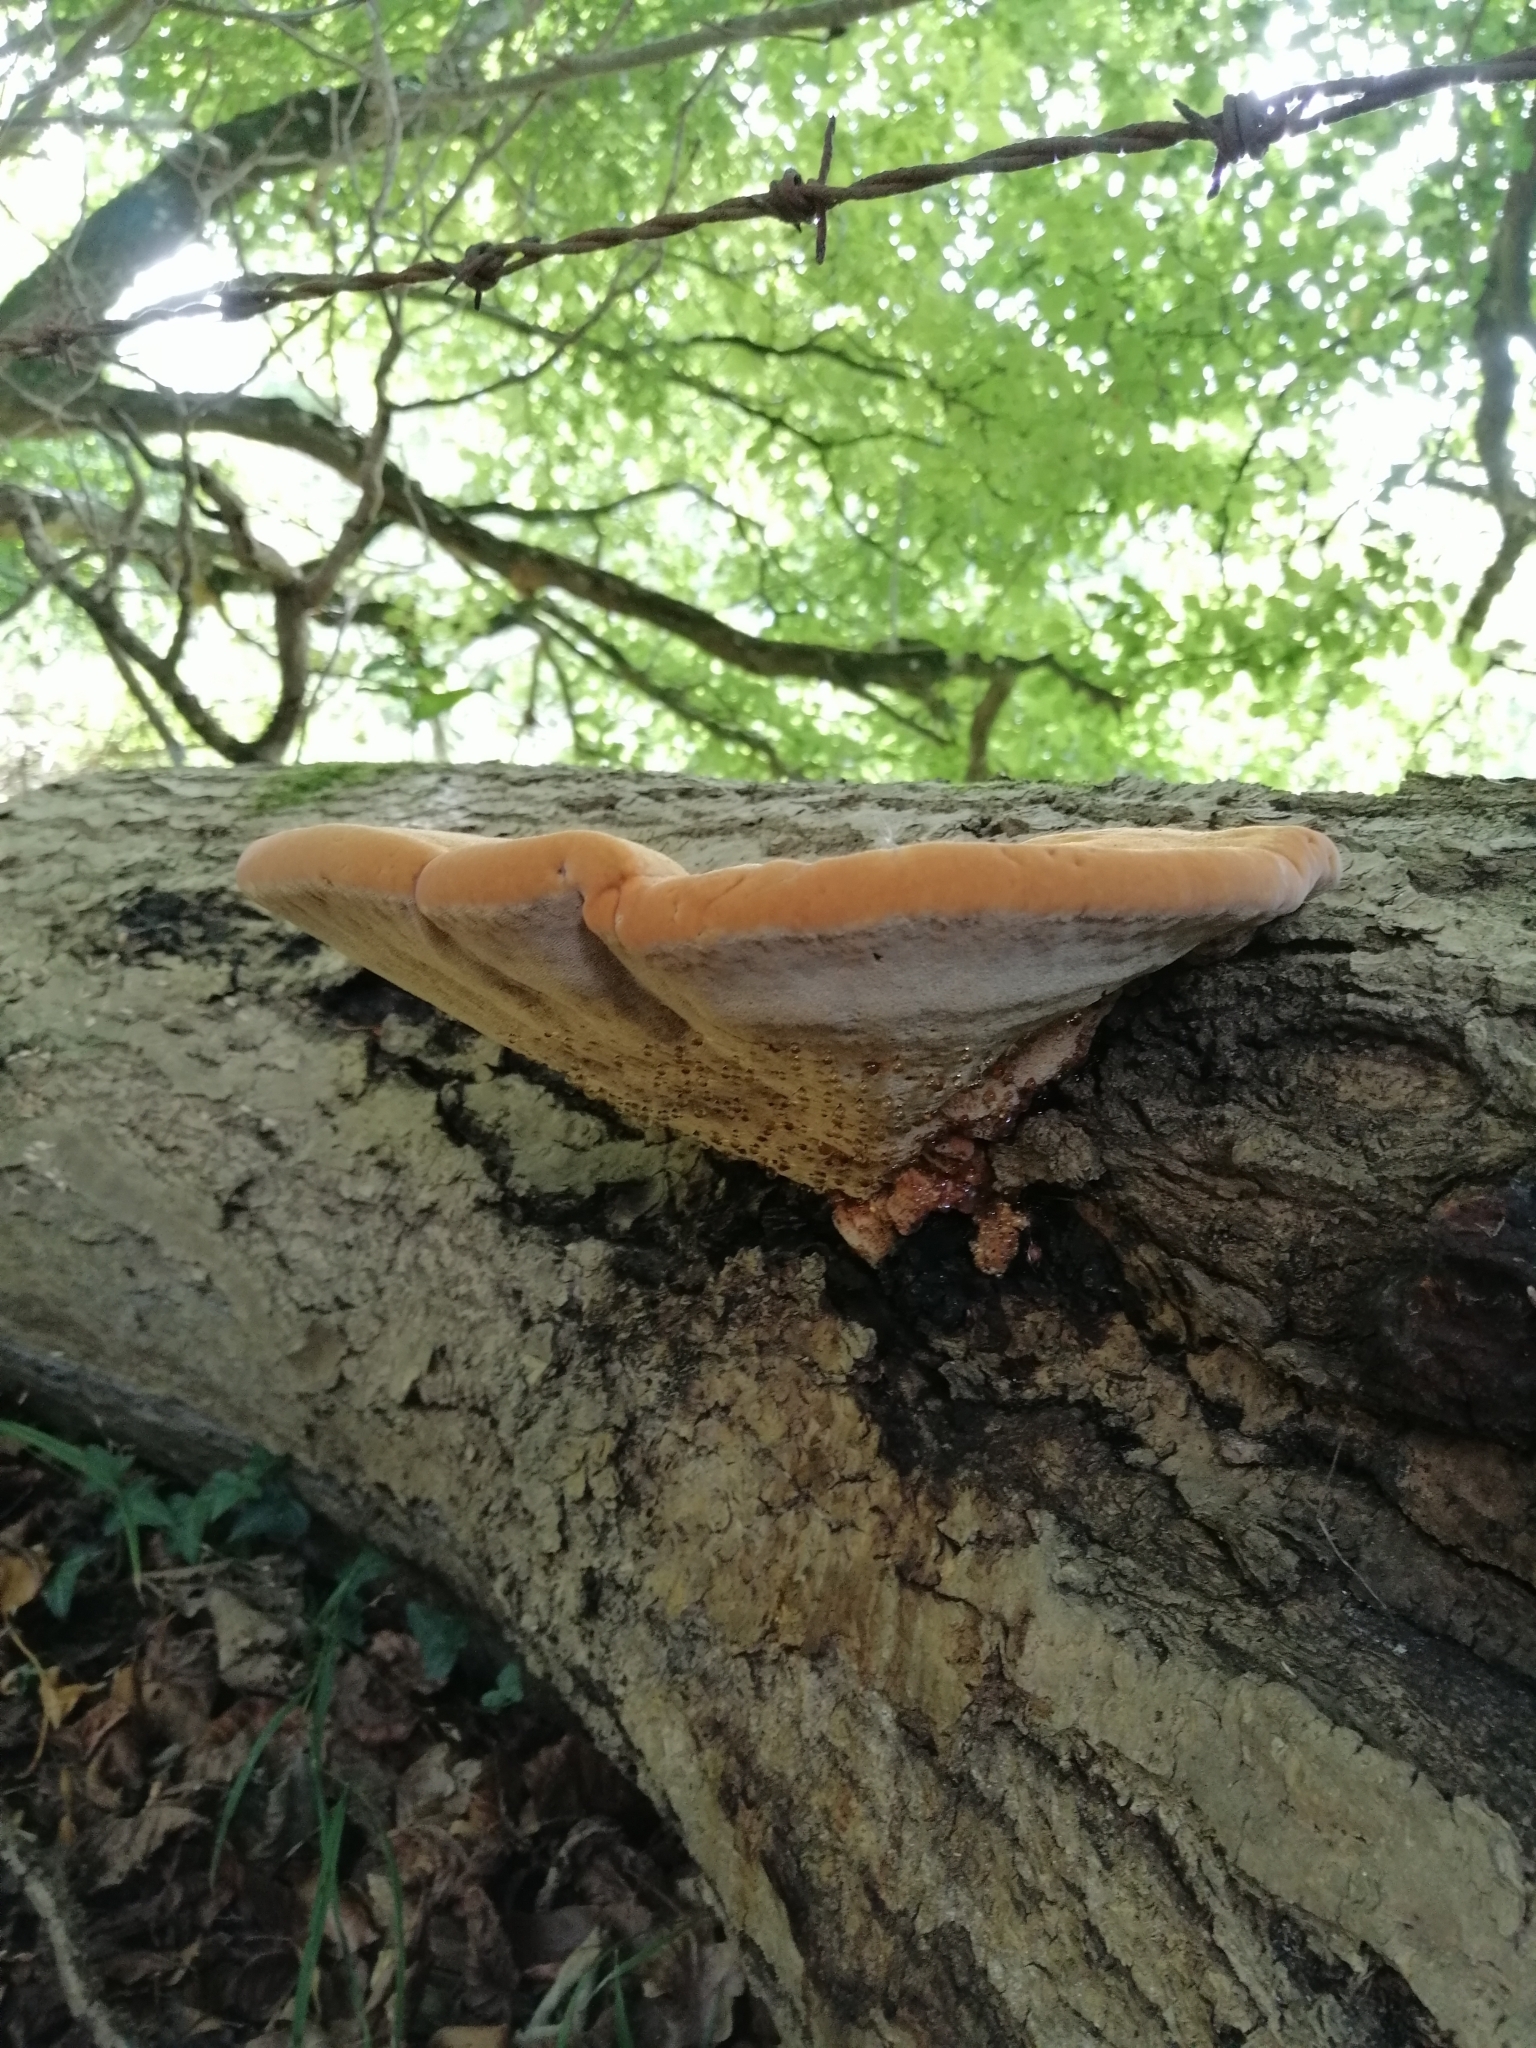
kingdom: Fungi
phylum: Basidiomycota
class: Agaricomycetes
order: Hymenochaetales
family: Hymenochaetaceae
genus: Inonotus
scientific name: Inonotus hispidus
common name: Shaggy bracket
